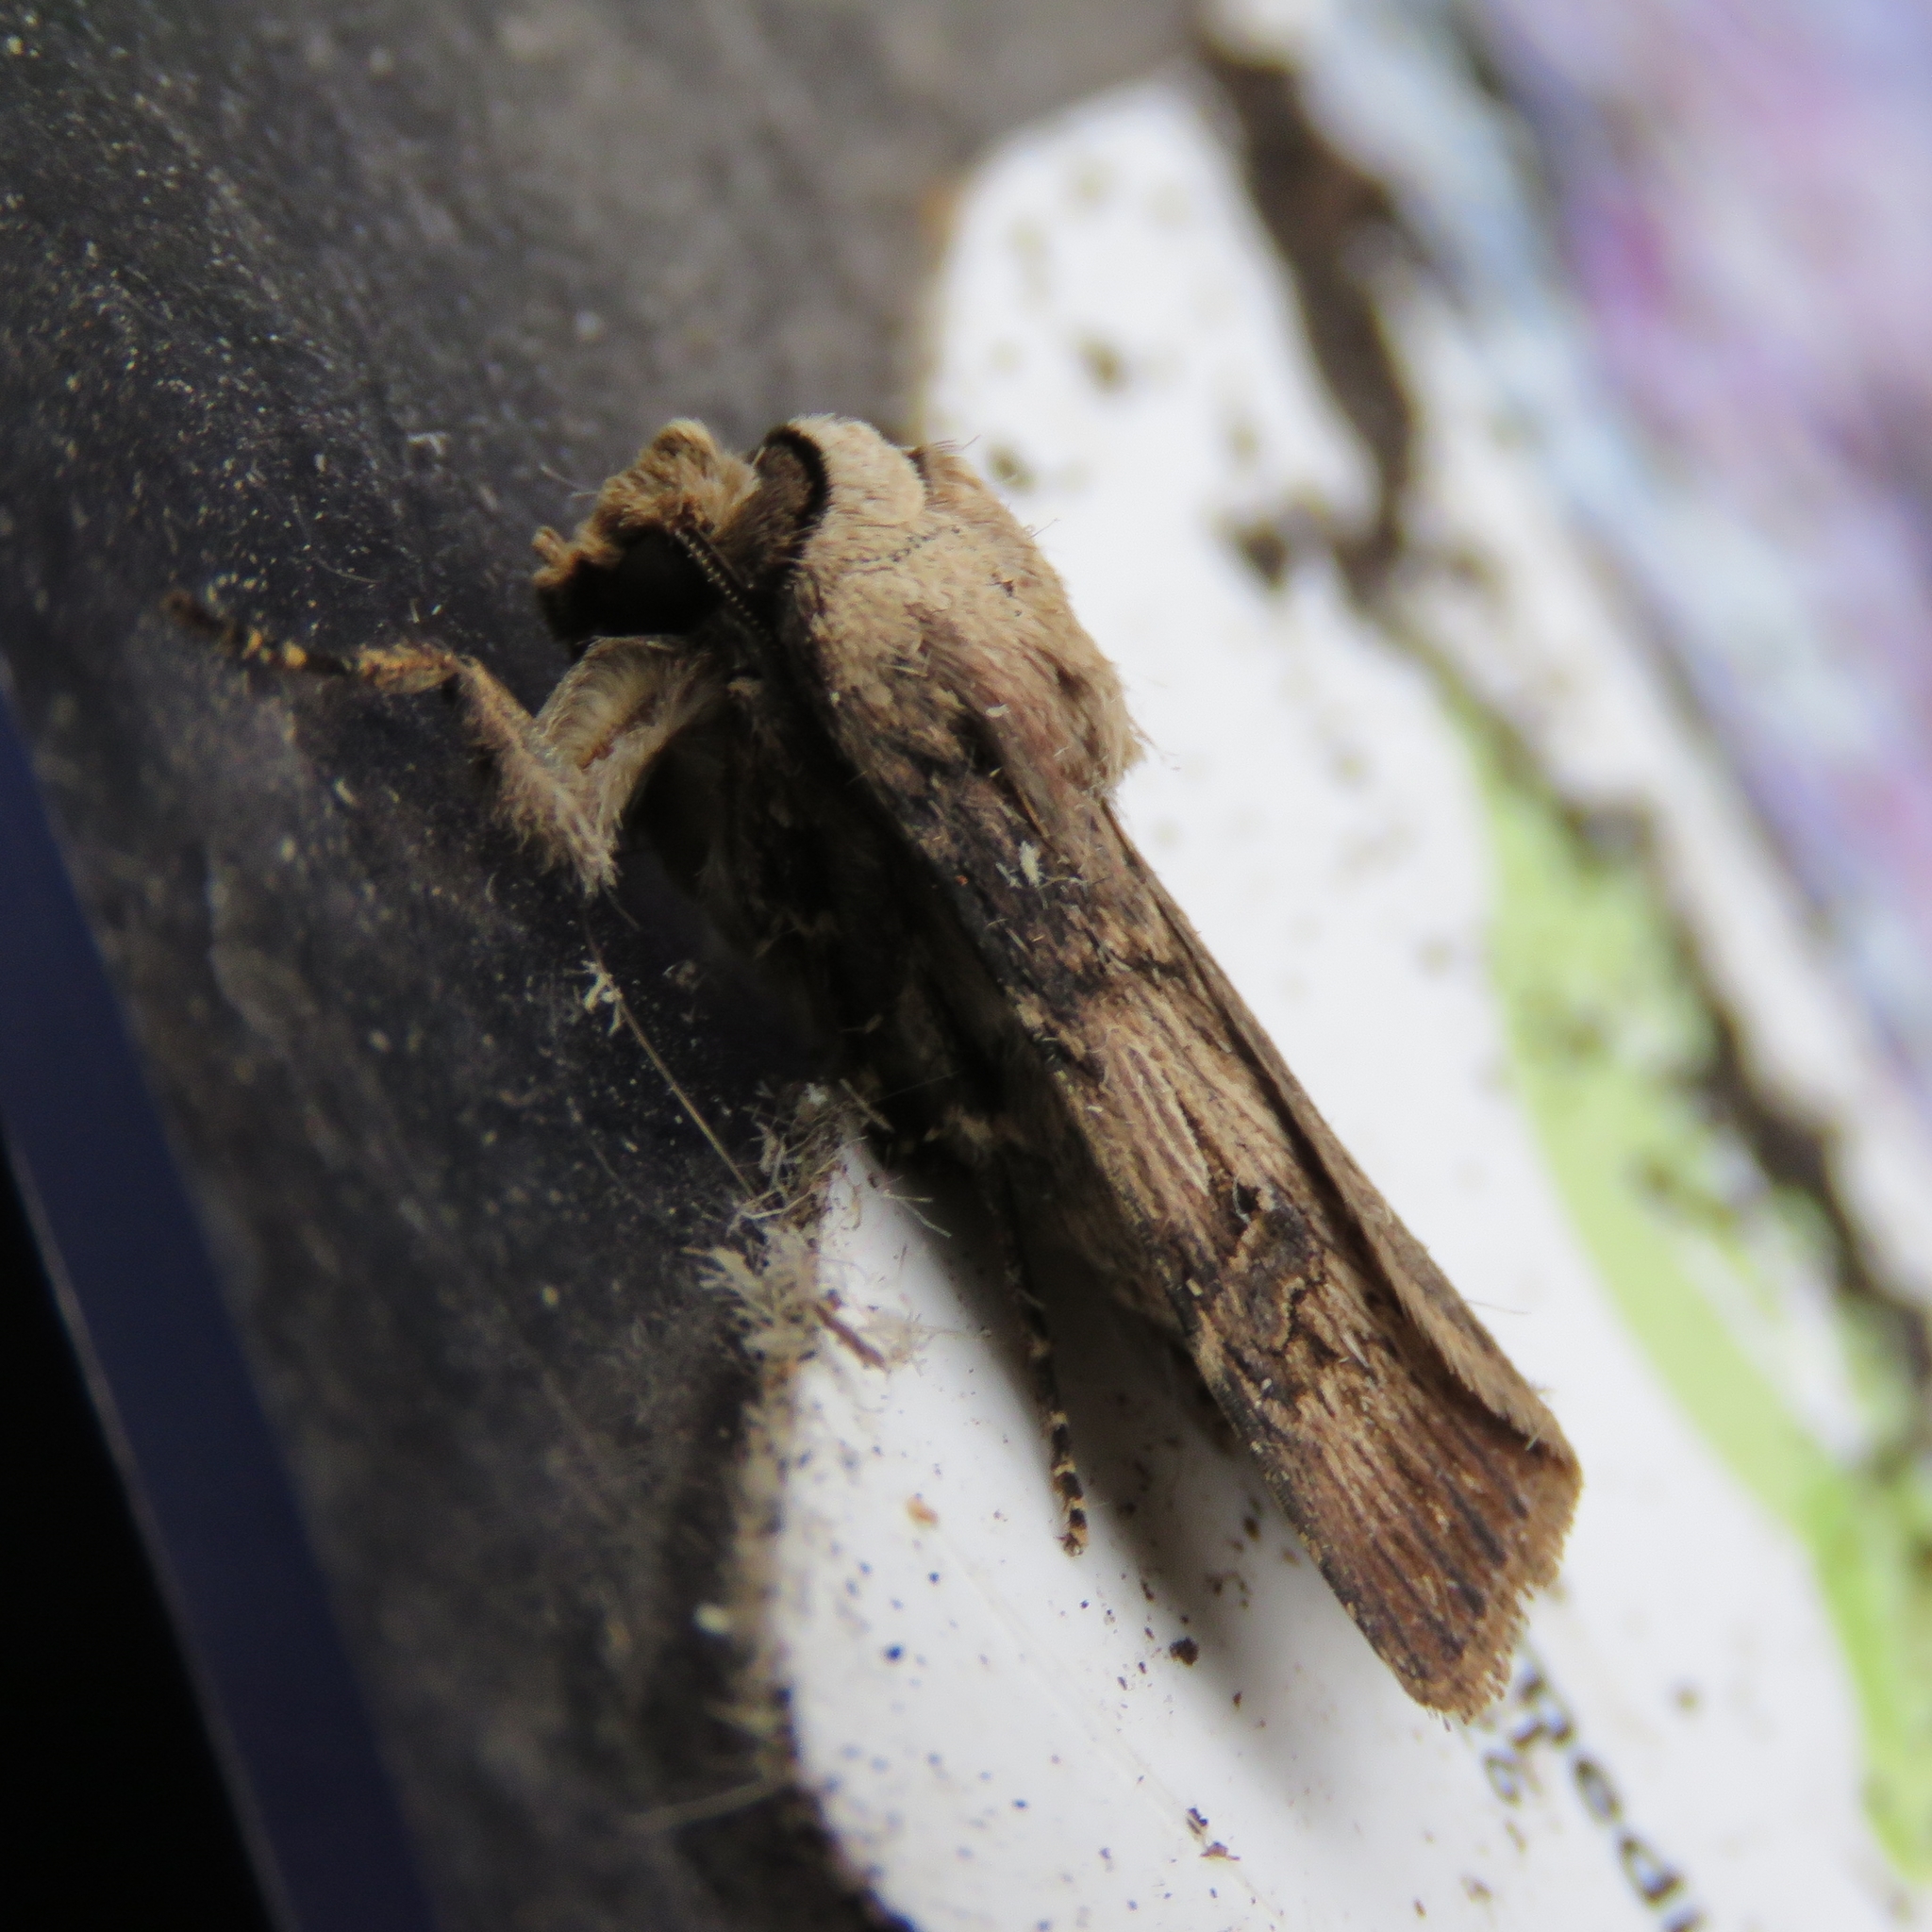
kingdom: Animalia
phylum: Arthropoda
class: Insecta
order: Lepidoptera
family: Noctuidae
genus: Agrotis
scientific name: Agrotis puta
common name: Shuttle-shaped dart
